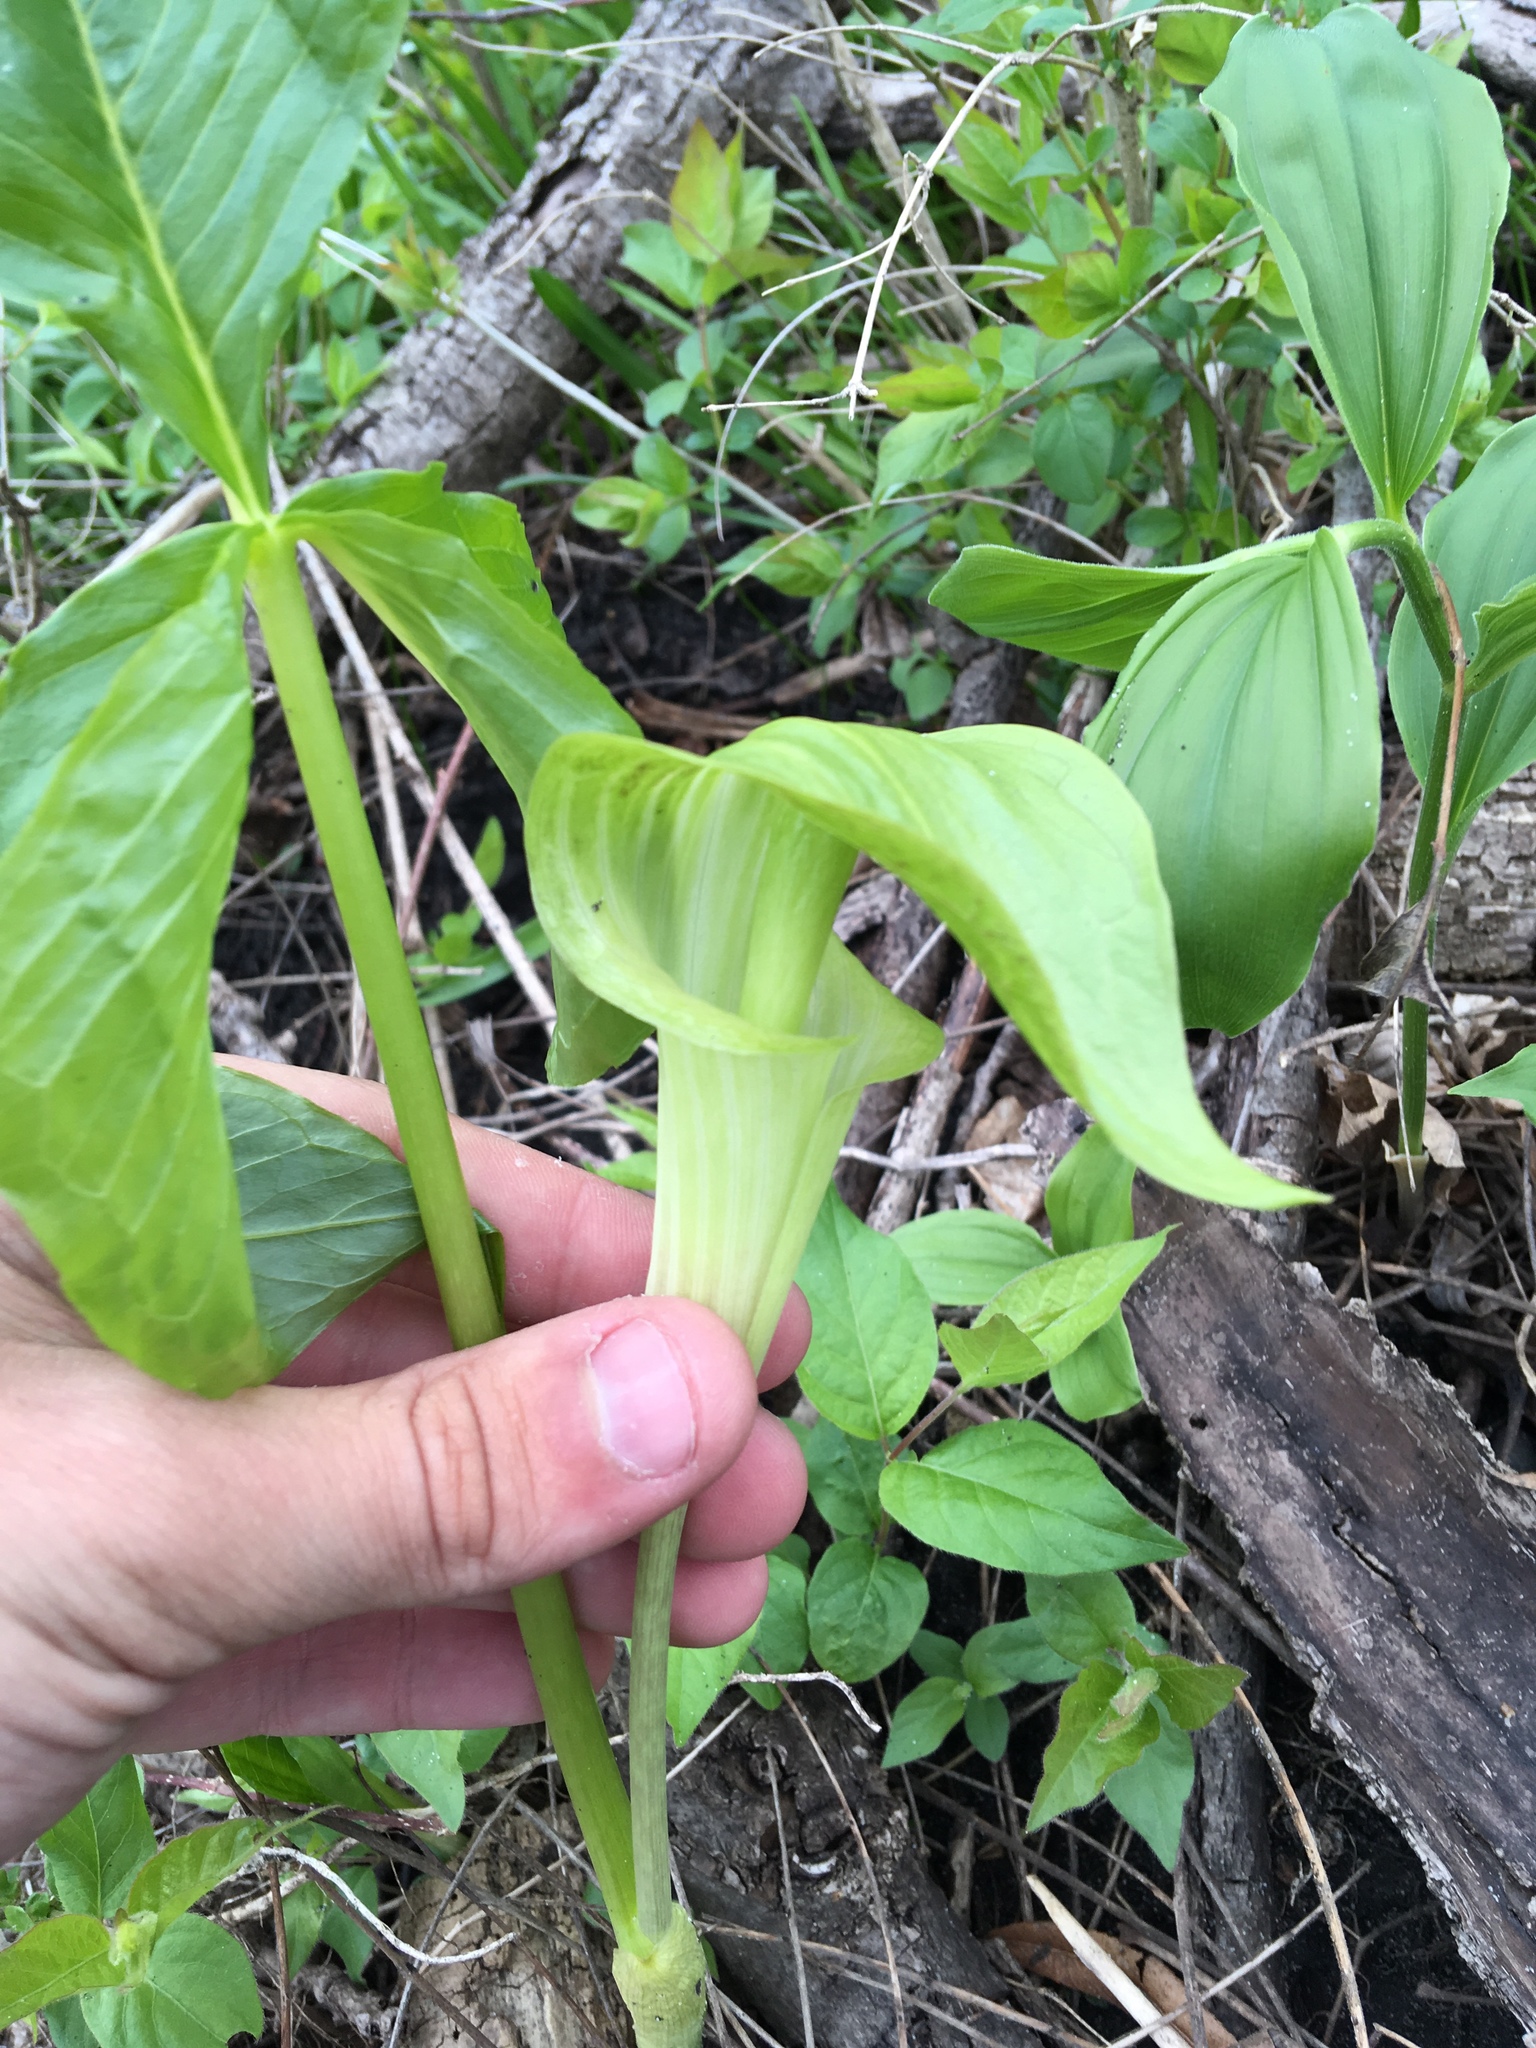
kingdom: Plantae
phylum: Tracheophyta
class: Liliopsida
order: Alismatales
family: Araceae
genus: Arisaema
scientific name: Arisaema triphyllum
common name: Jack-in-the-pulpit
